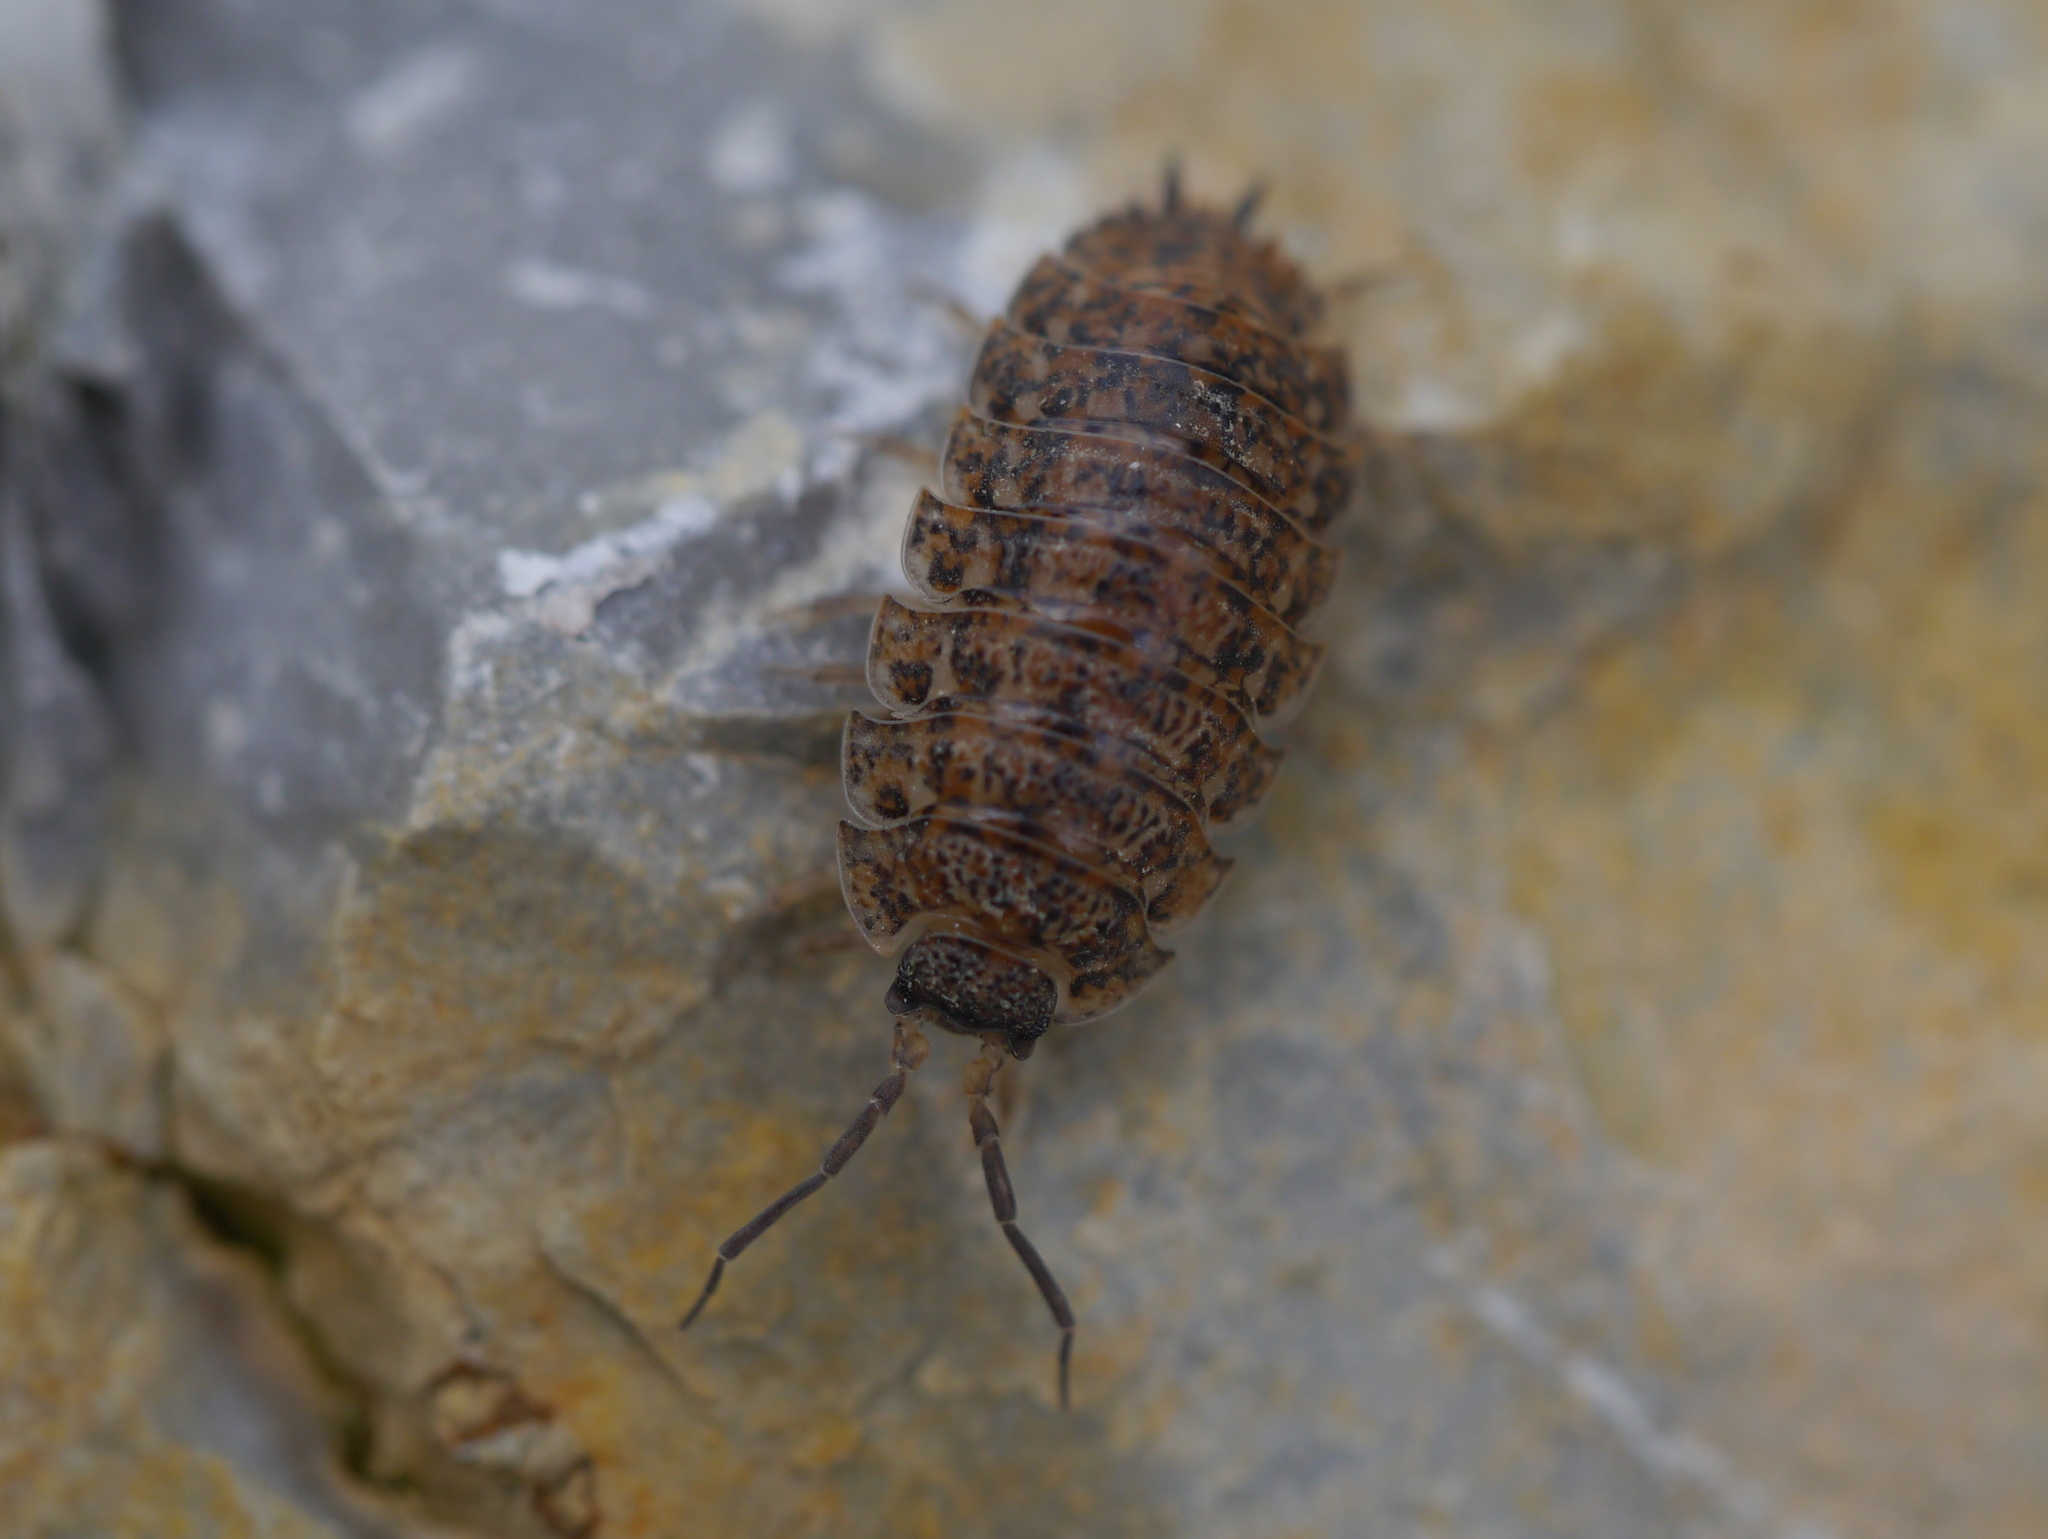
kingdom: Animalia
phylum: Arthropoda
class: Malacostraca
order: Isopoda
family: Trachelipodidae
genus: Trachelipus
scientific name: Trachelipus rathkii
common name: Isopod
